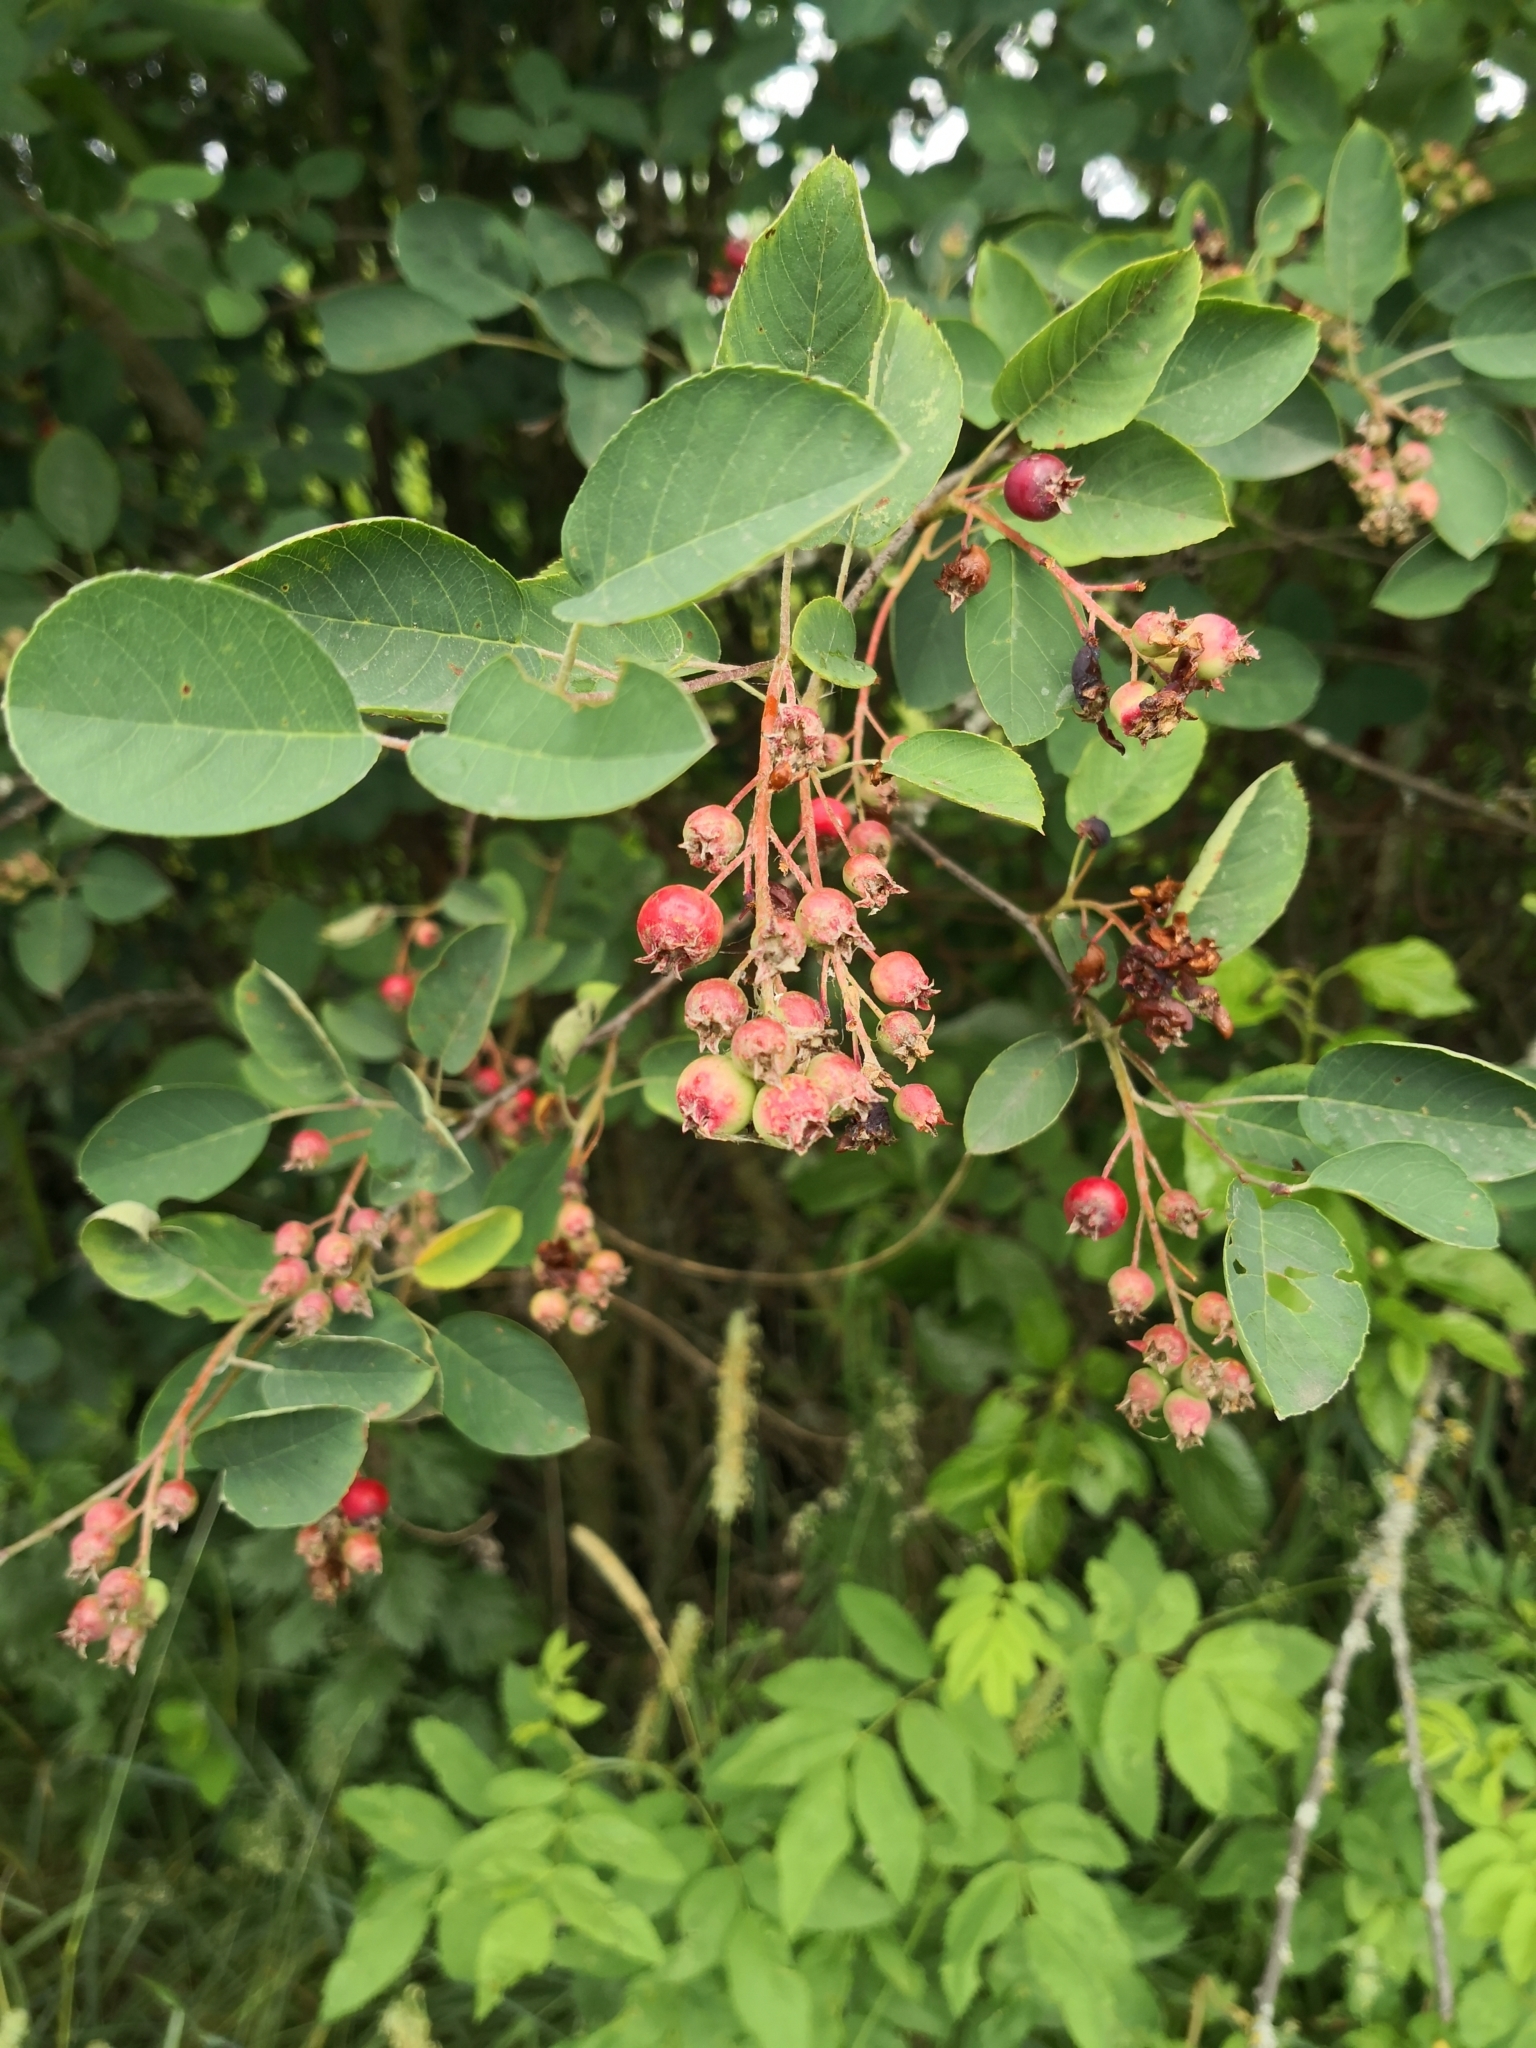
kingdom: Plantae
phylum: Tracheophyta
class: Magnoliopsida
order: Rosales
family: Rosaceae
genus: Amelanchier
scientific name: Amelanchier
